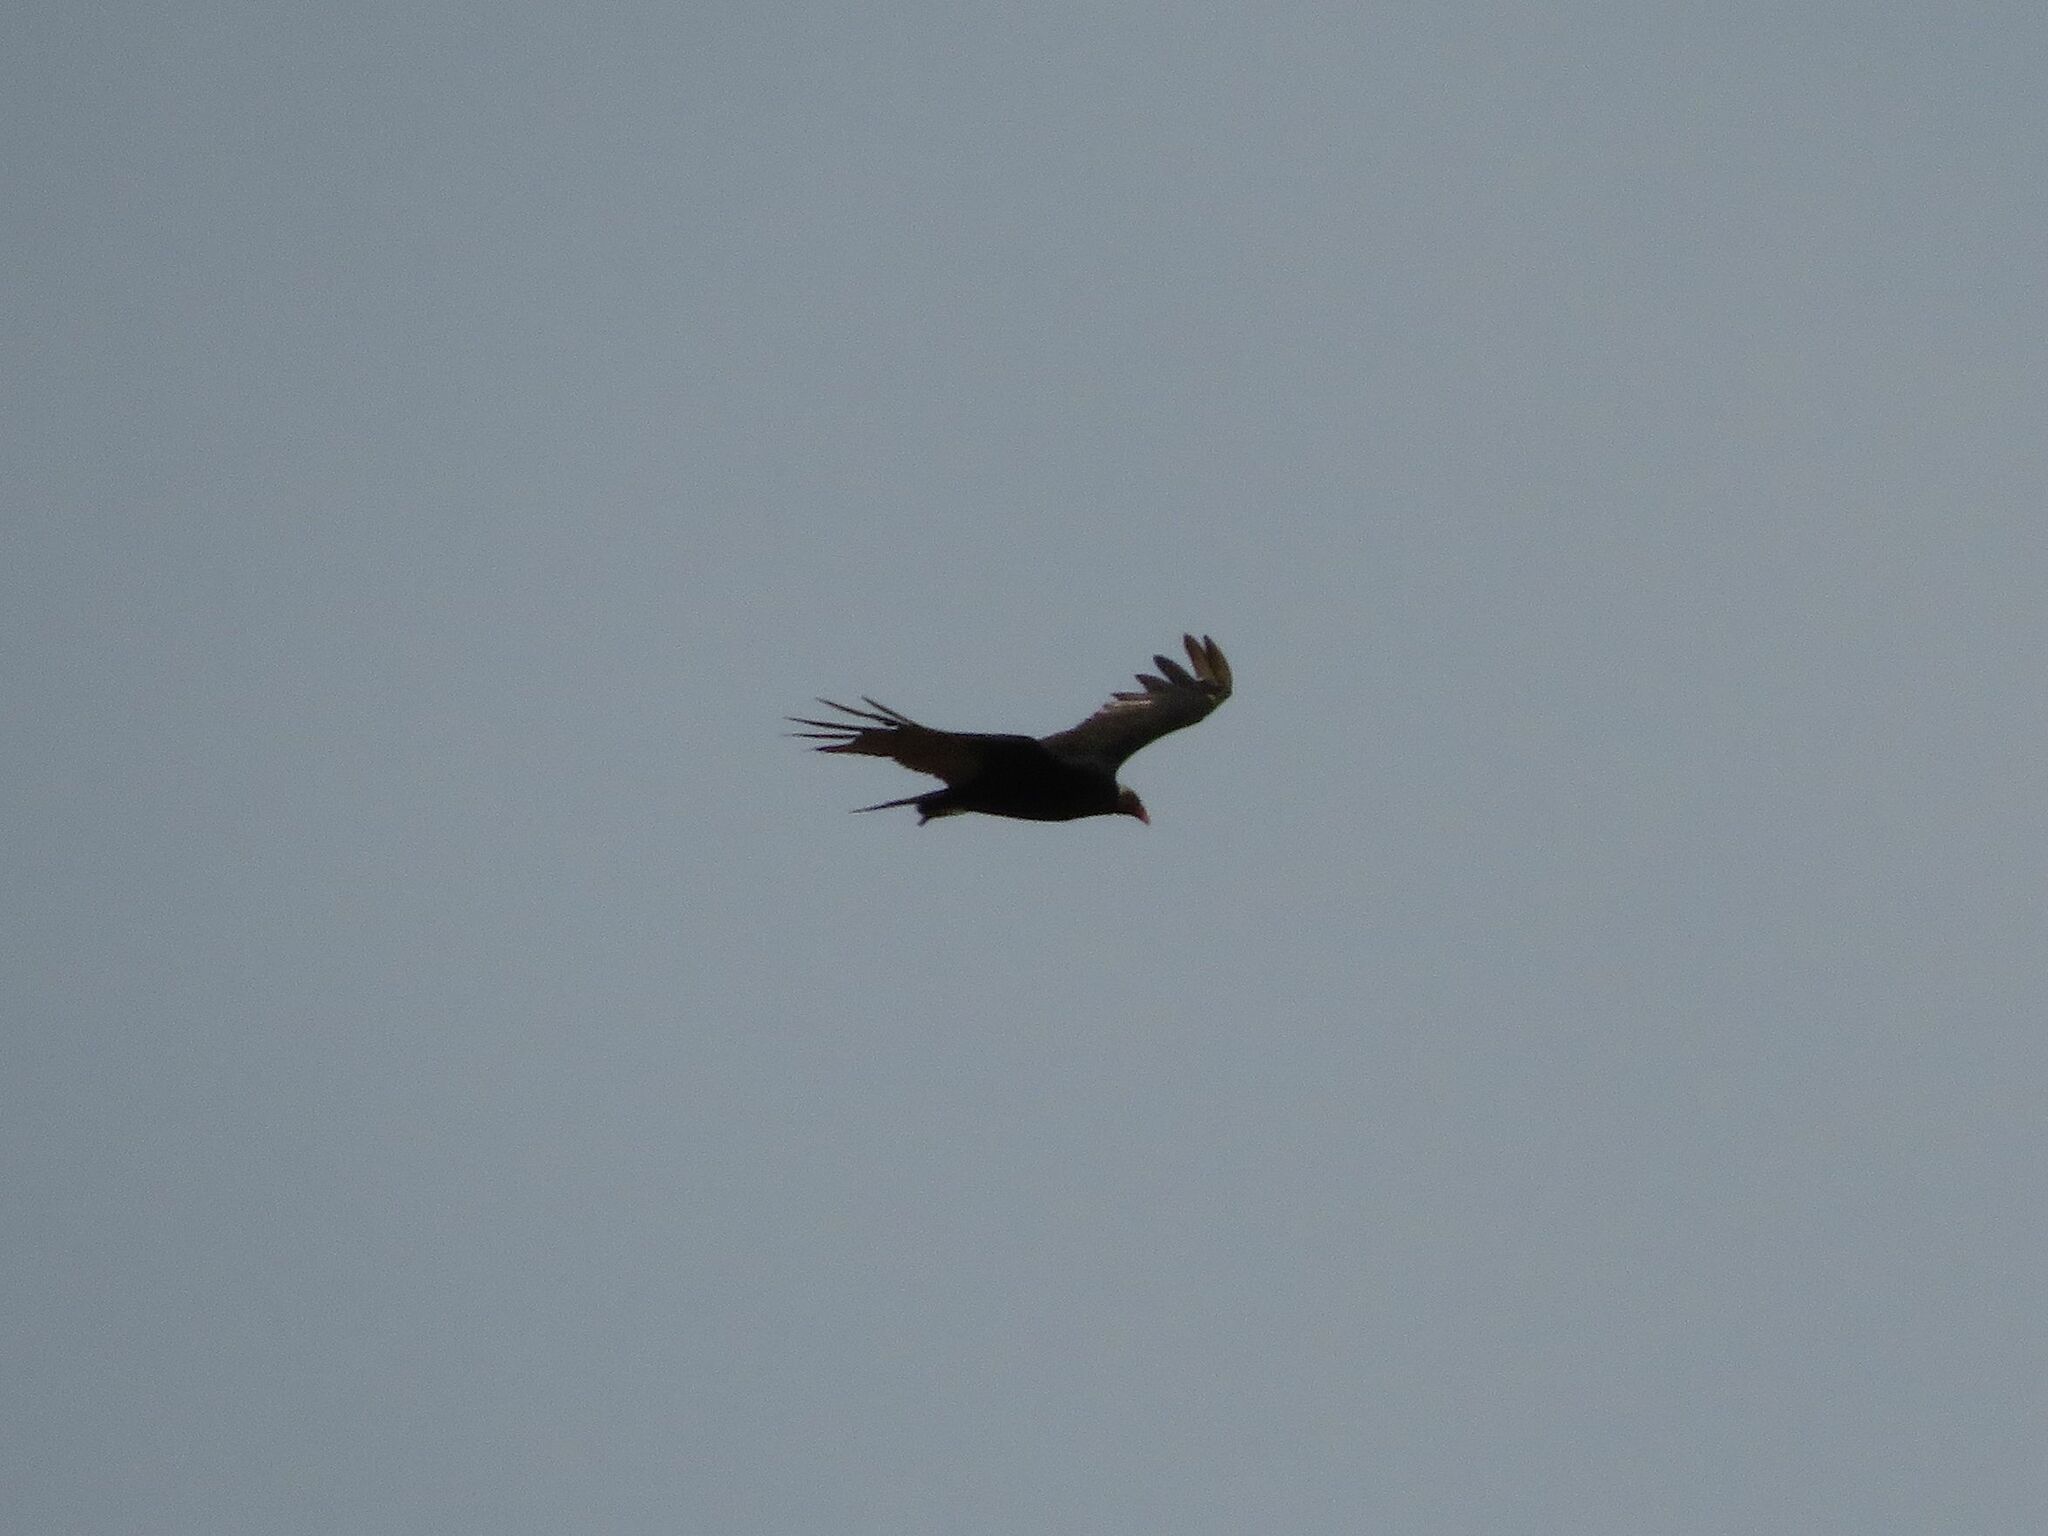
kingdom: Animalia
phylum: Chordata
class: Aves
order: Accipitriformes
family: Cathartidae
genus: Cathartes
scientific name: Cathartes aura
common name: Turkey vulture
